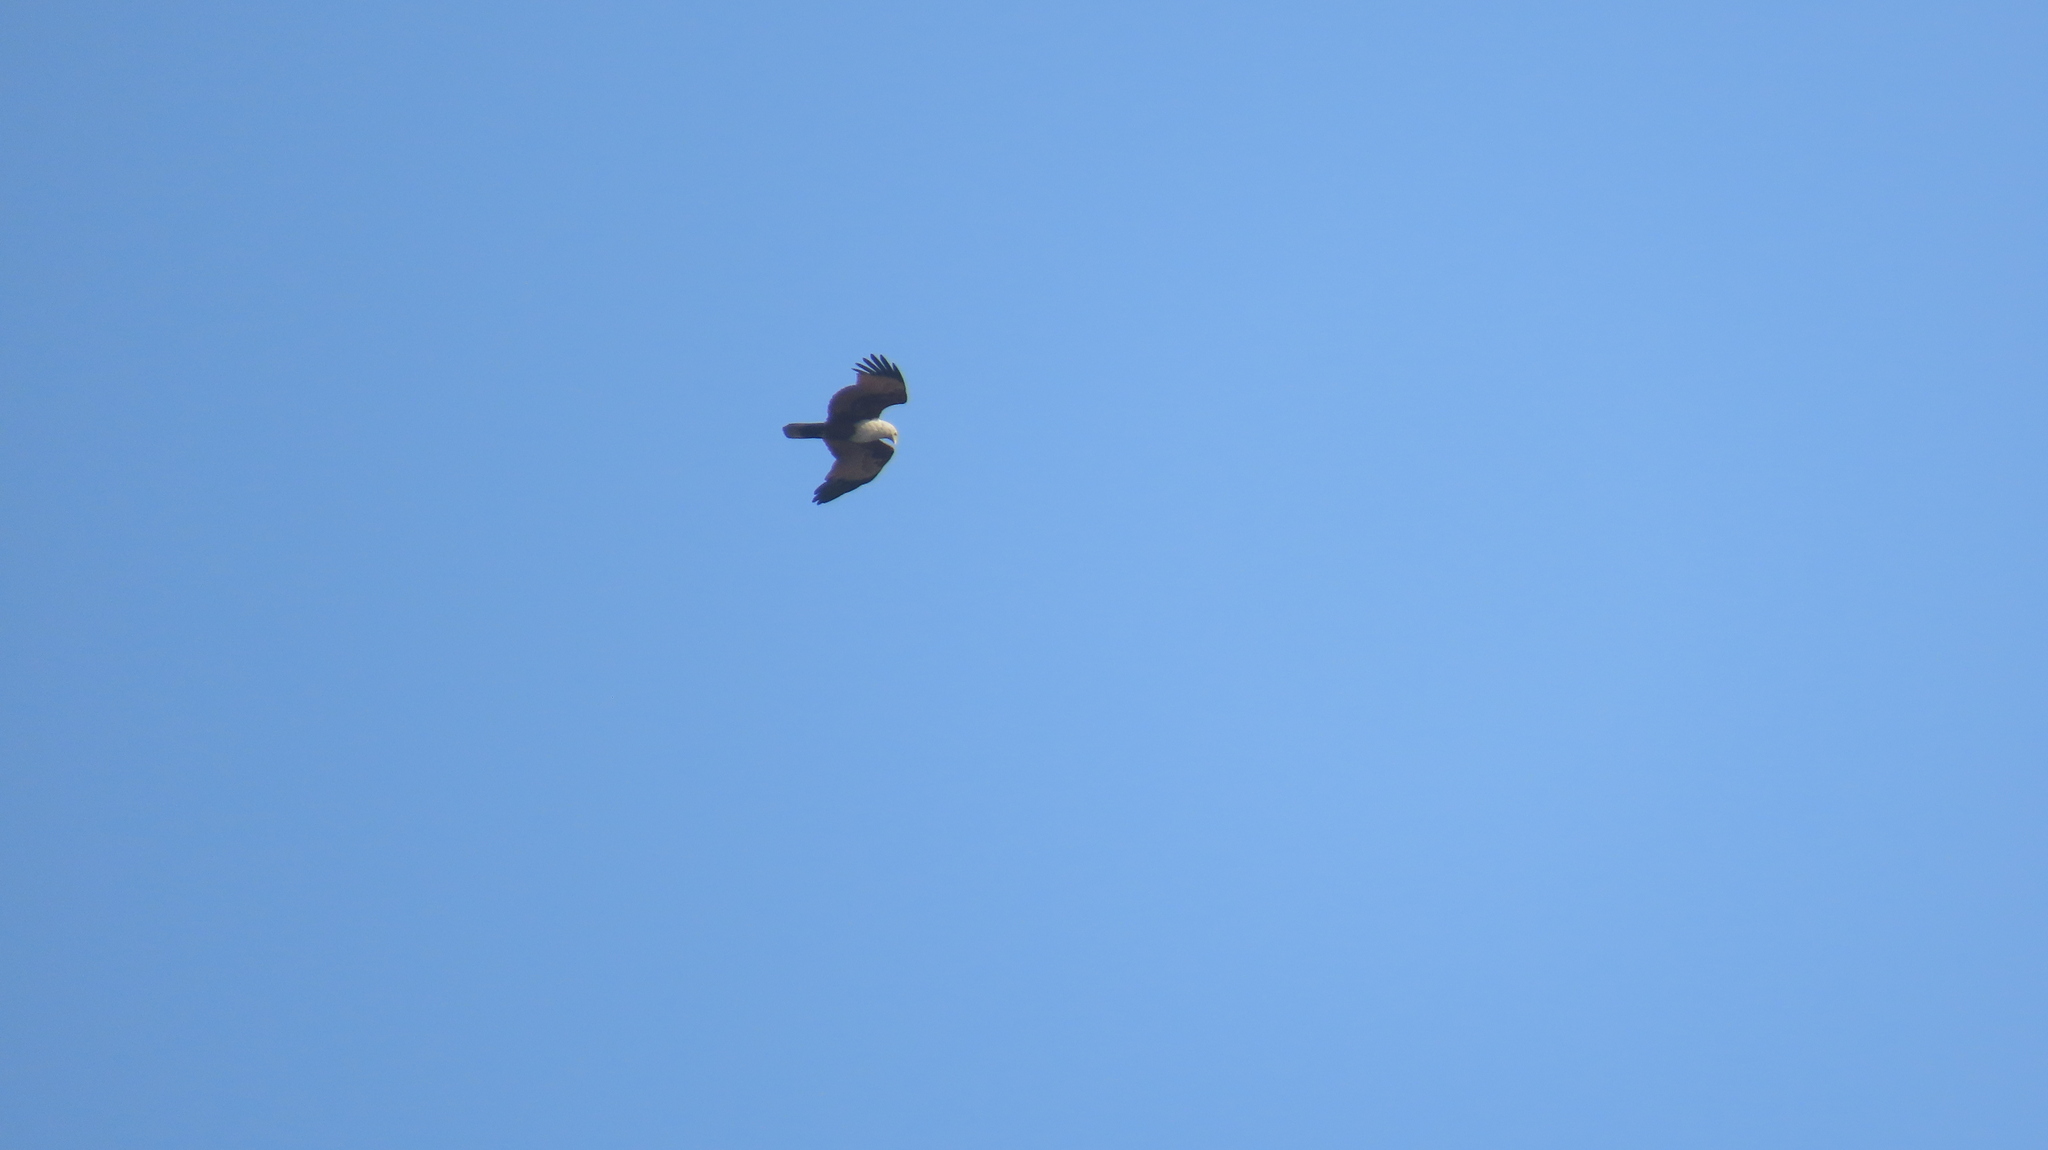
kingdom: Animalia
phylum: Chordata
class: Aves
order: Accipitriformes
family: Accipitridae
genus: Haliastur
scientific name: Haliastur indus
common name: Brahminy kite
